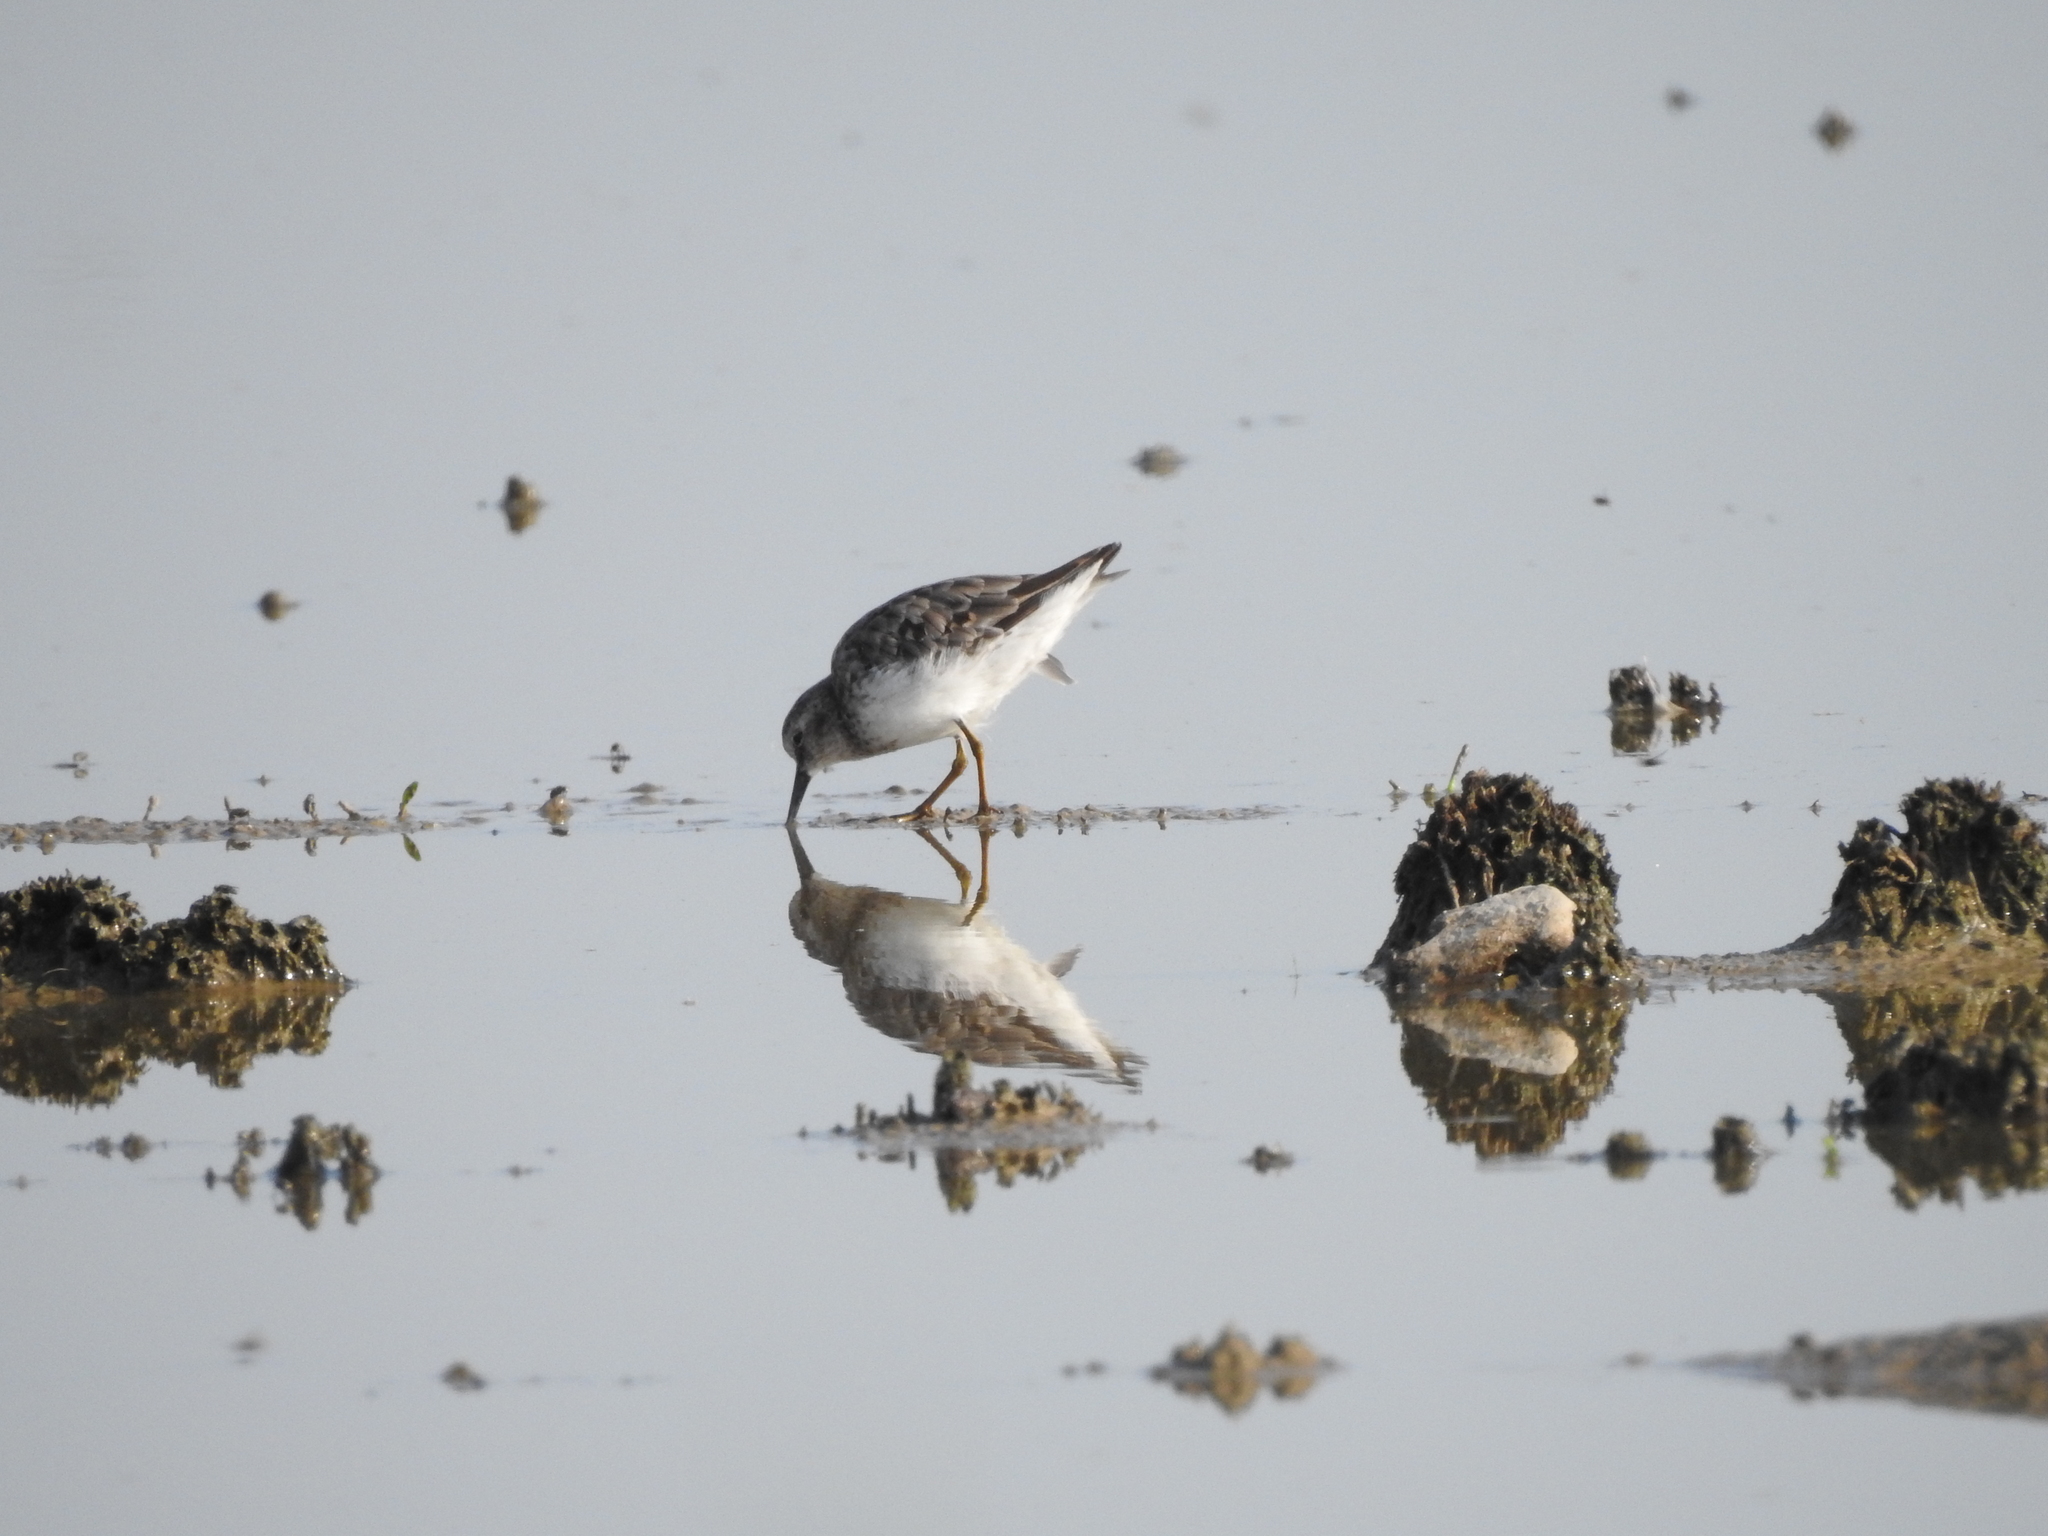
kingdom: Animalia
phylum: Chordata
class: Aves
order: Charadriiformes
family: Scolopacidae
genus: Calidris
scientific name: Calidris minutilla
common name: Least sandpiper
